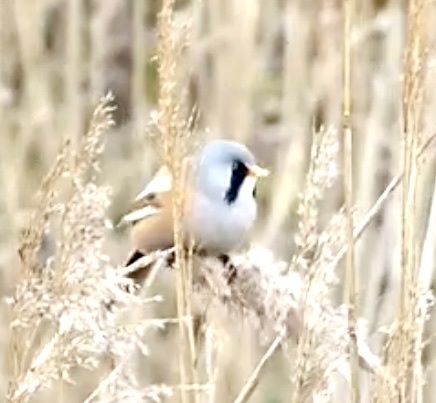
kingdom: Animalia
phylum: Chordata
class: Aves
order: Passeriformes
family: Panuridae
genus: Panurus
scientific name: Panurus biarmicus
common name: Bearded reedling
